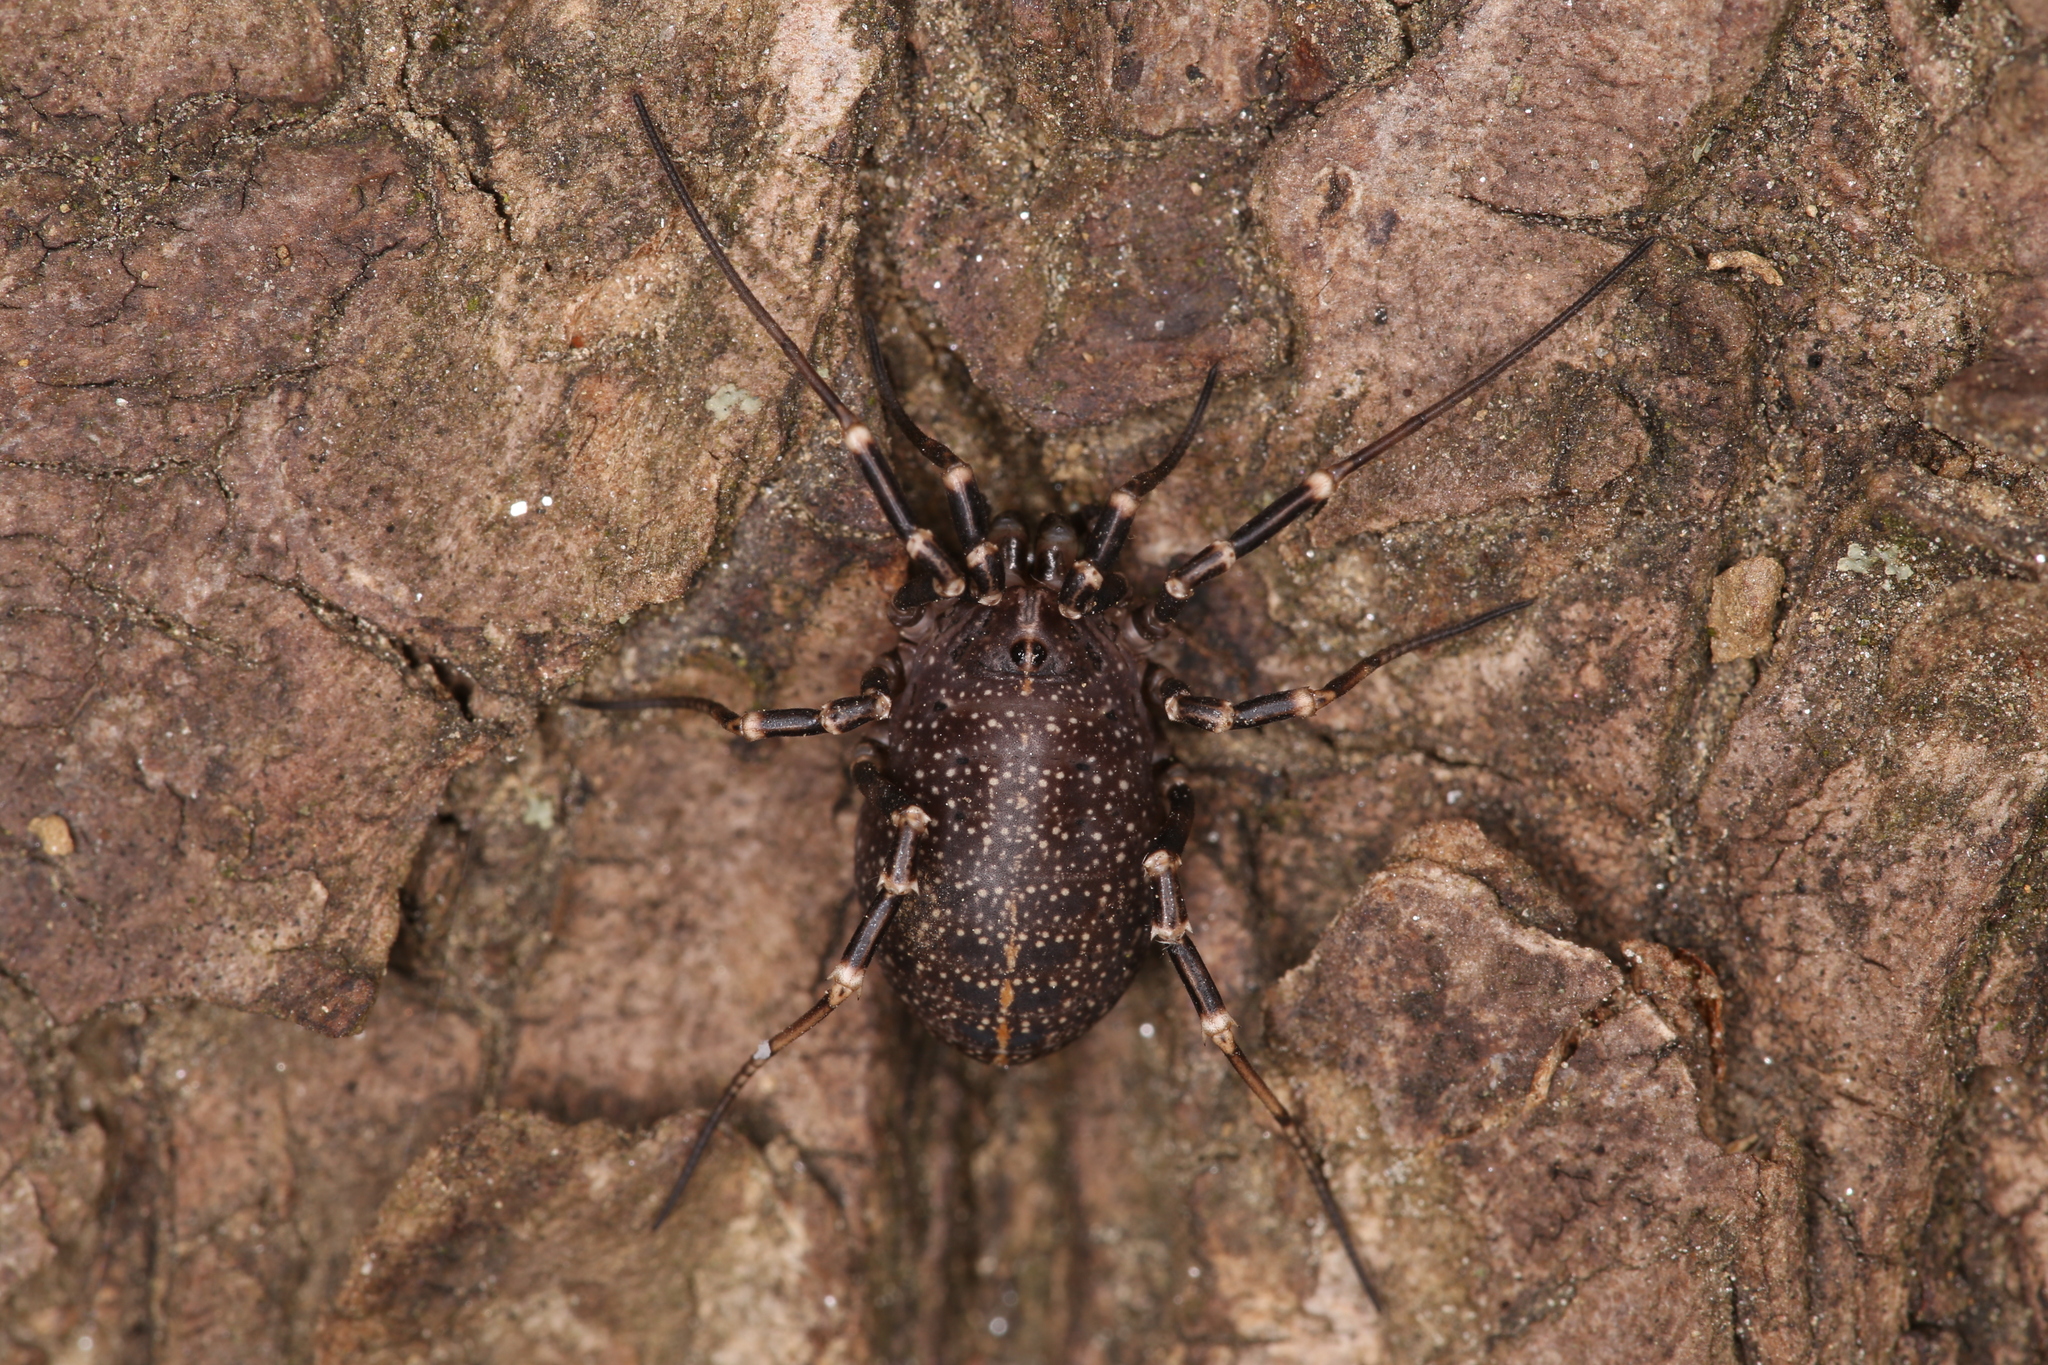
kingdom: Animalia
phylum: Arthropoda
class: Arachnida
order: Opiliones
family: Phalangiidae
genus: Egaenus
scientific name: Egaenus convexus
